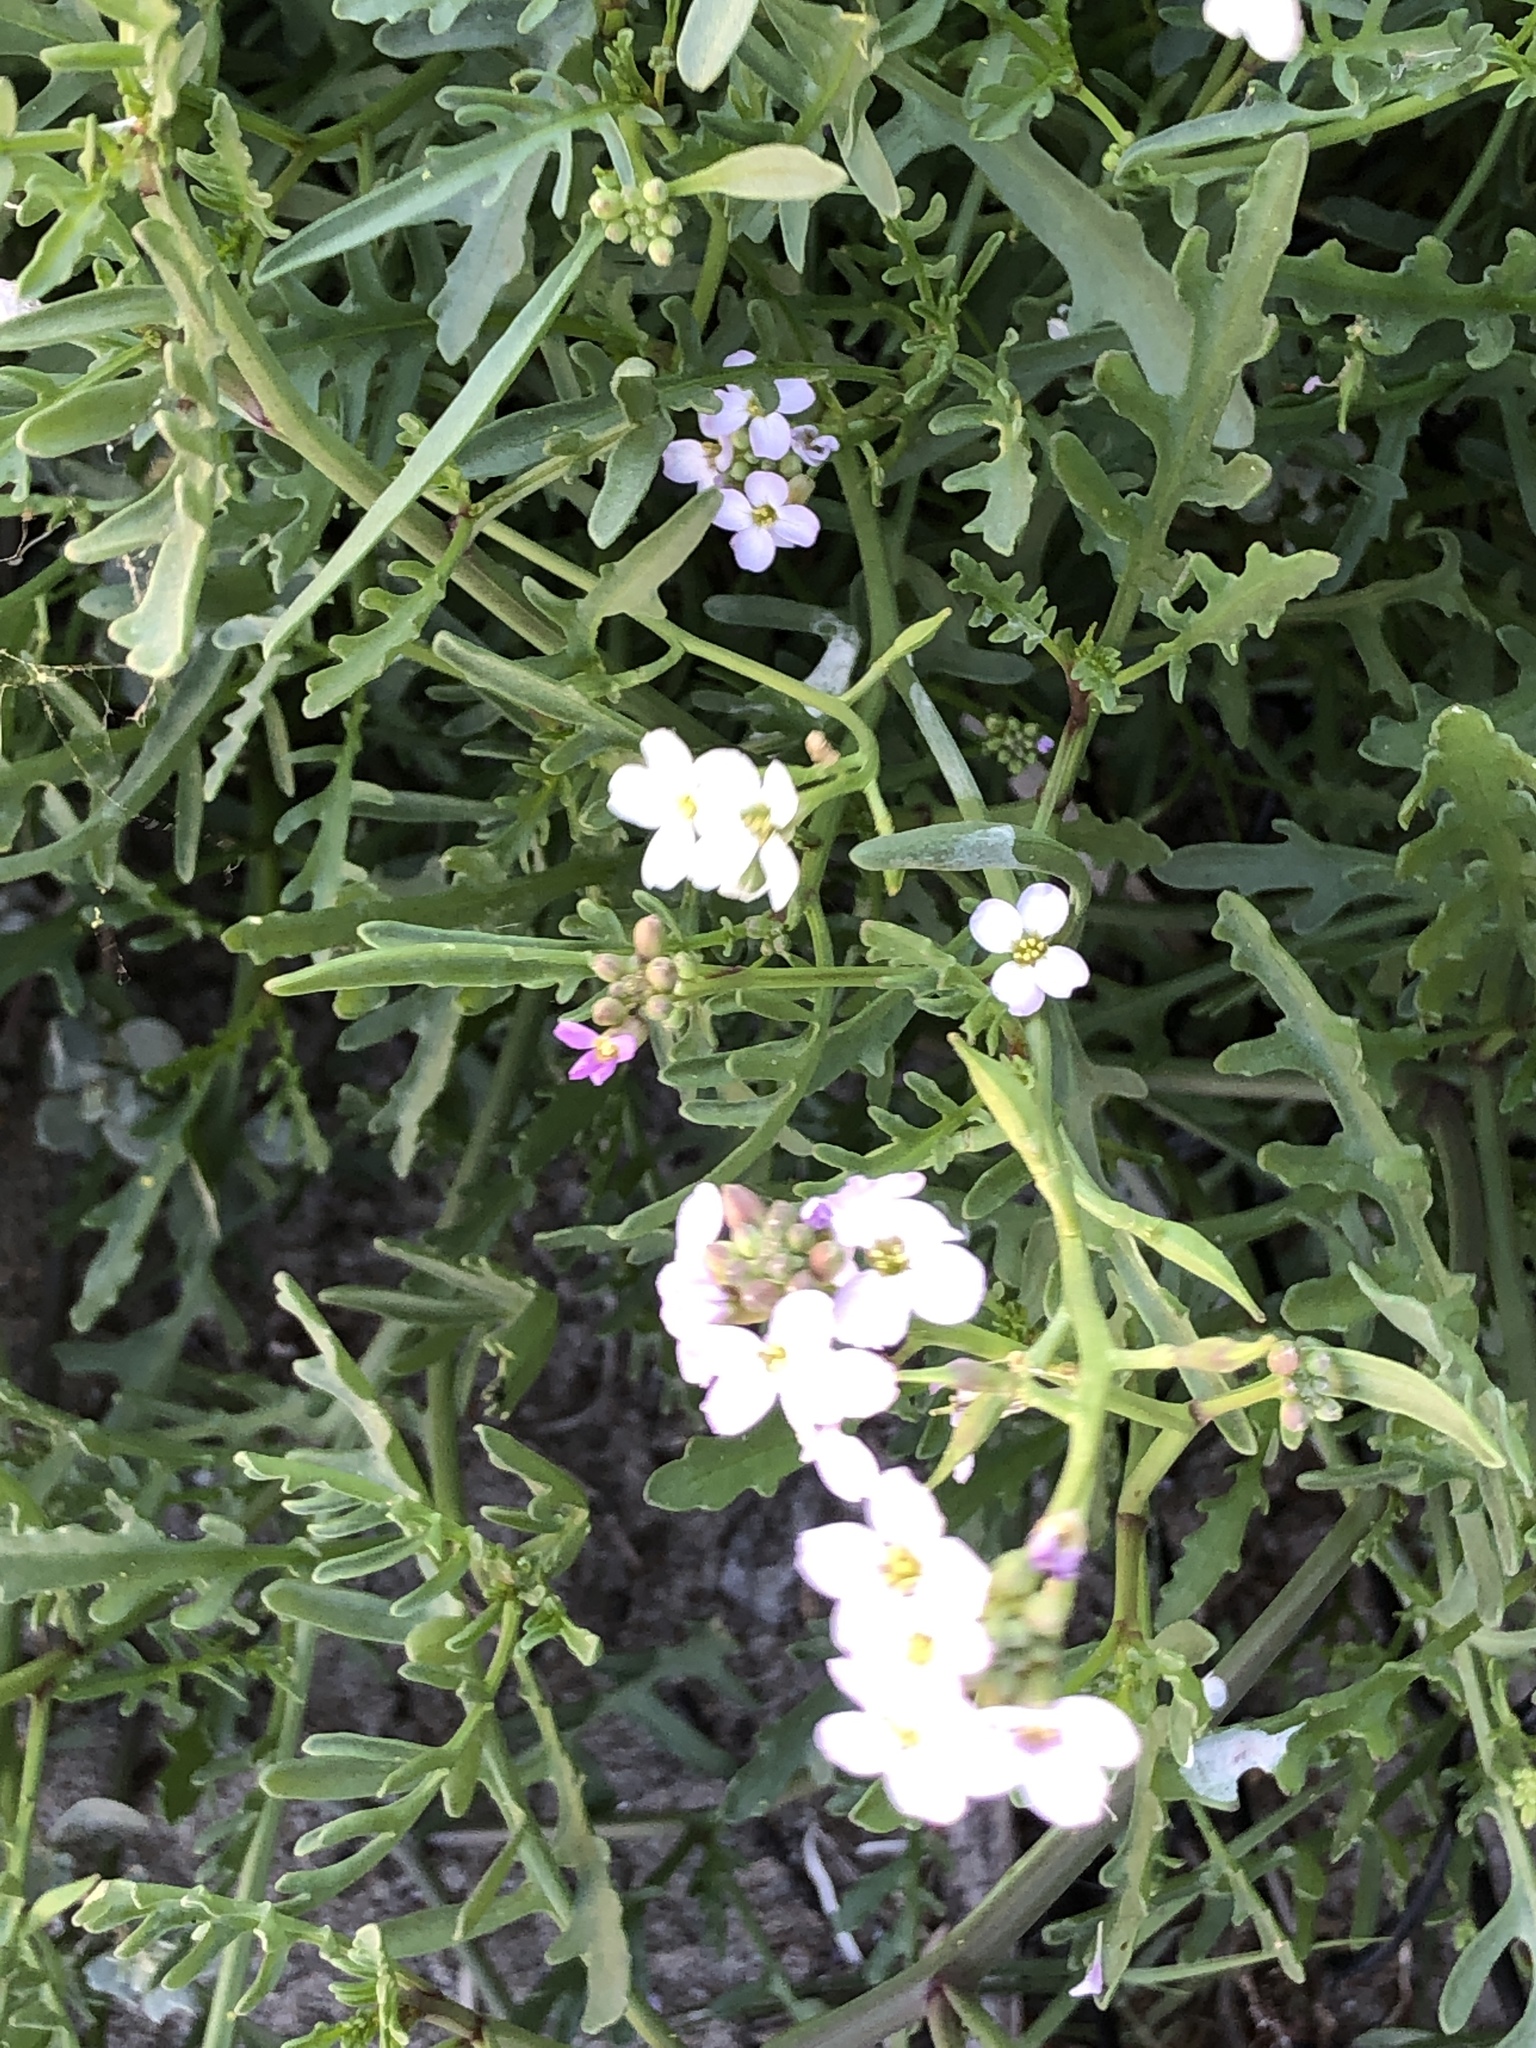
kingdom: Plantae
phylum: Tracheophyta
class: Magnoliopsida
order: Brassicales
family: Brassicaceae
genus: Cakile
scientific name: Cakile maritima
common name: Sea rocket
